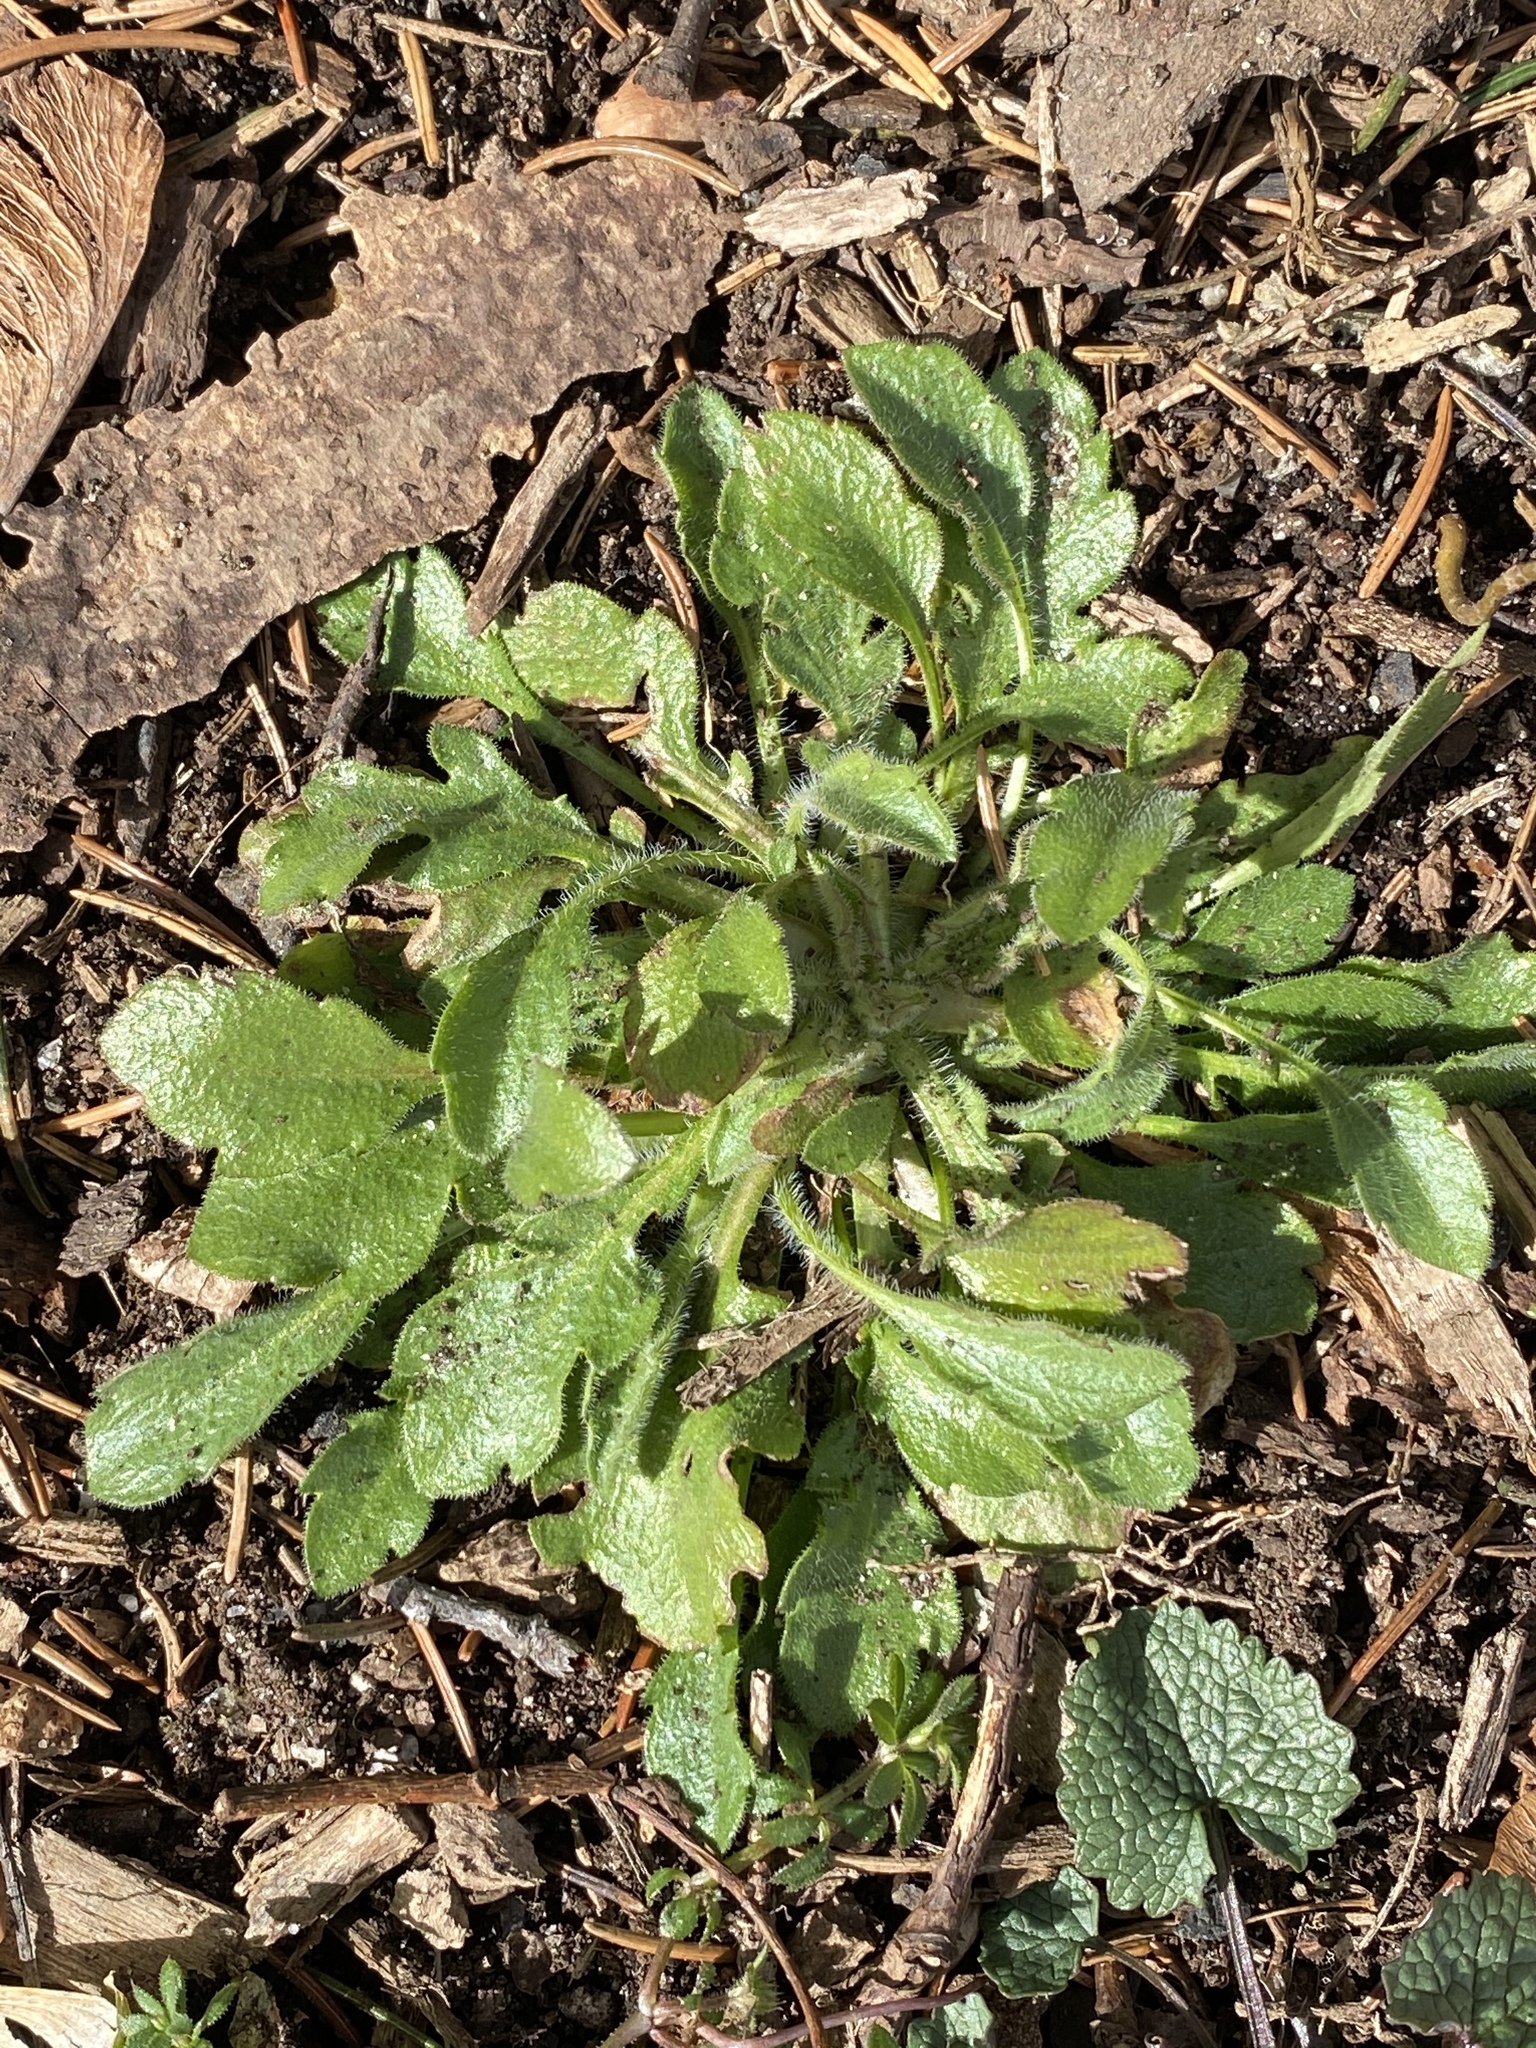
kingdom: Plantae
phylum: Tracheophyta
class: Magnoliopsida
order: Asterales
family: Asteraceae
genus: Erigeron
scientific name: Erigeron canadensis
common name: Canadian fleabane
